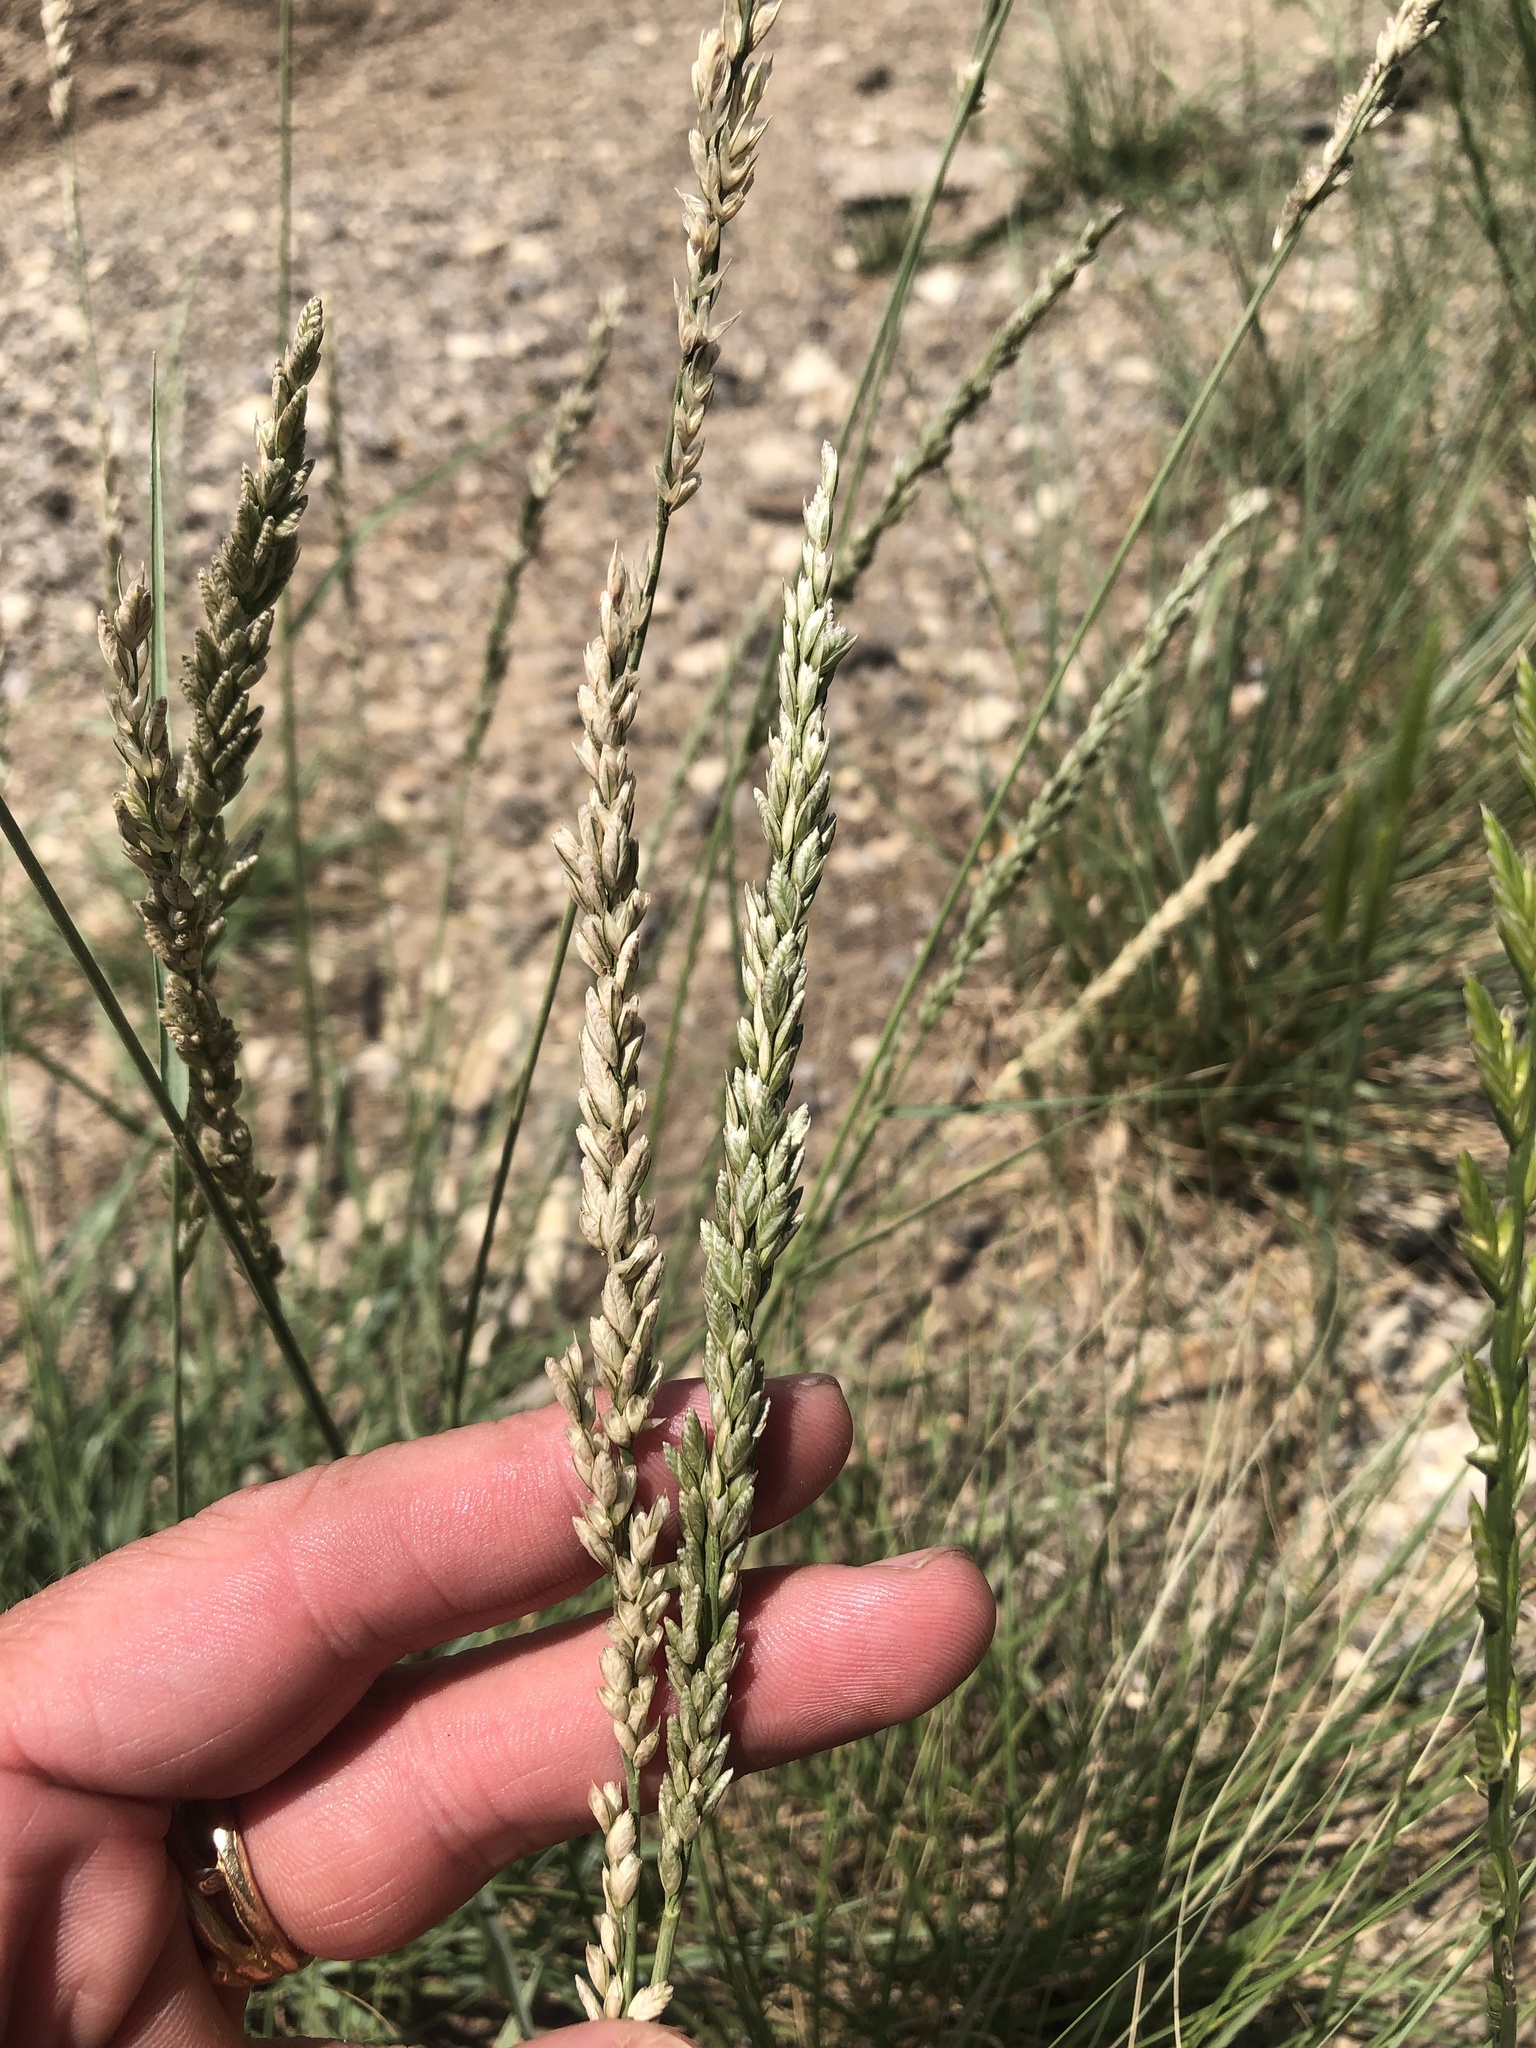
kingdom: Plantae
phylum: Tracheophyta
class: Liliopsida
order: Poales
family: Poaceae
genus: Tridens
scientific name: Tridens albescens
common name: White tridens
